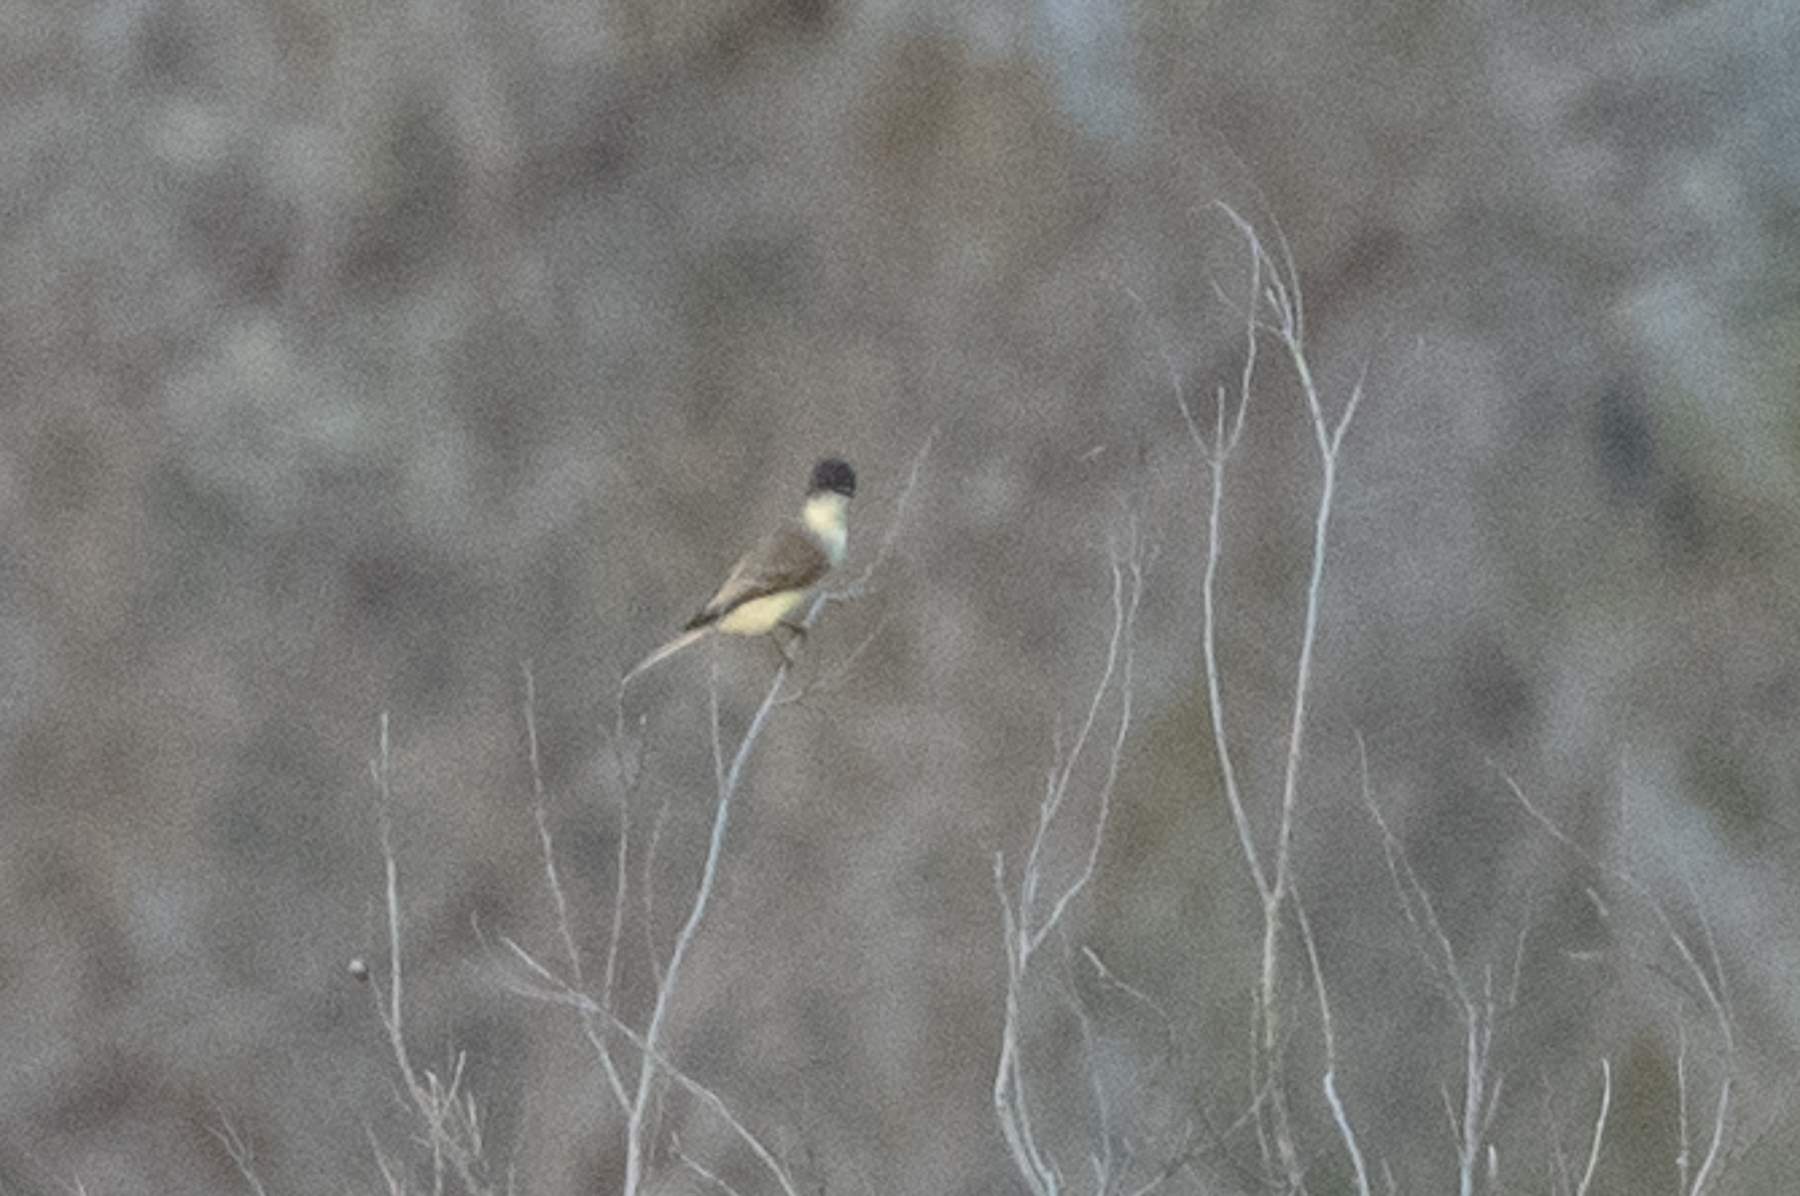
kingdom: Animalia
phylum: Chordata
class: Aves
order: Passeriformes
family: Tyrannidae
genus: Sayornis
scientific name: Sayornis phoebe
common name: Eastern phoebe
